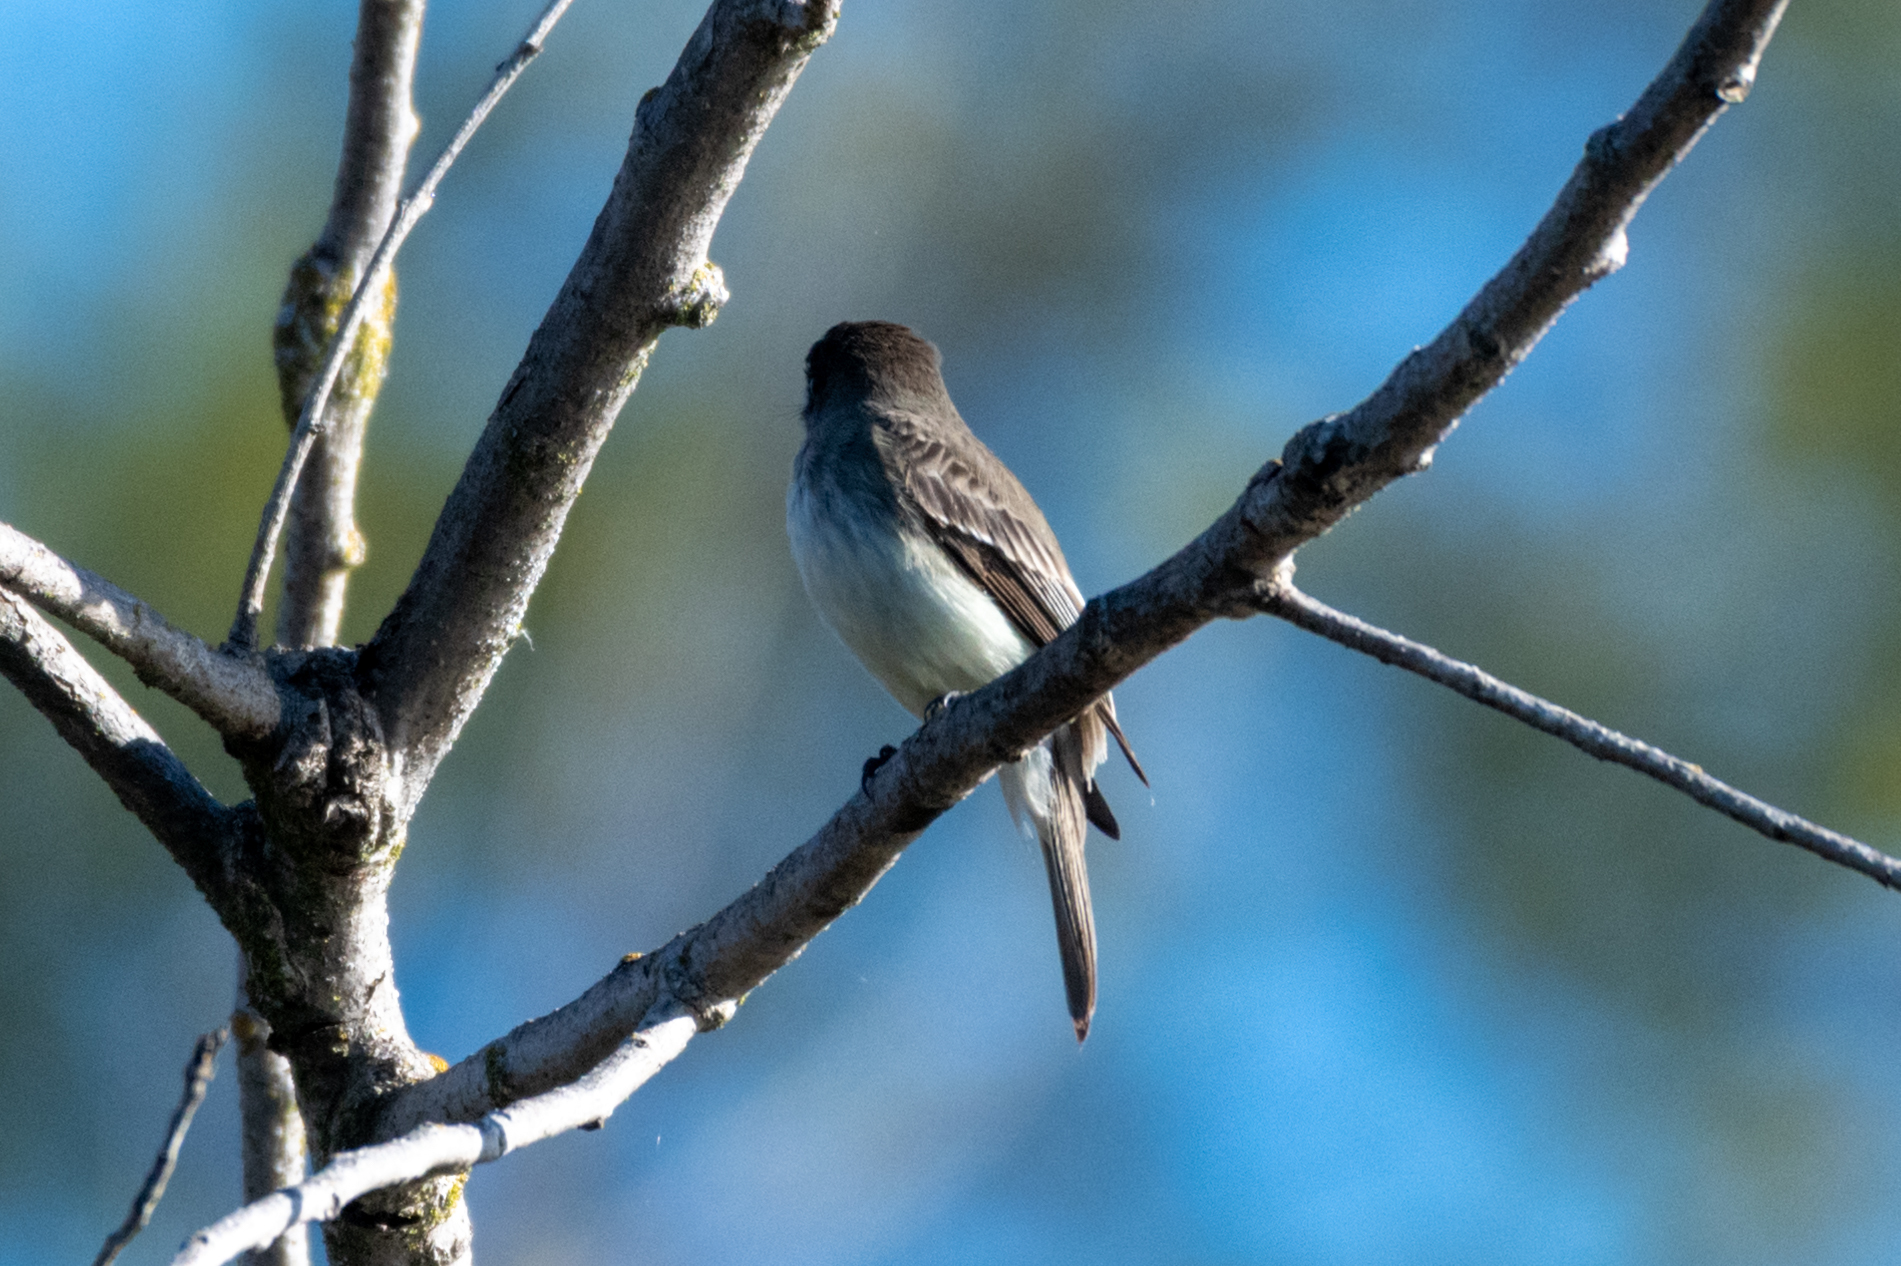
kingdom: Animalia
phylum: Chordata
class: Aves
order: Passeriformes
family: Tyrannidae
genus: Sayornis
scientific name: Sayornis nigricans
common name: Black phoebe
